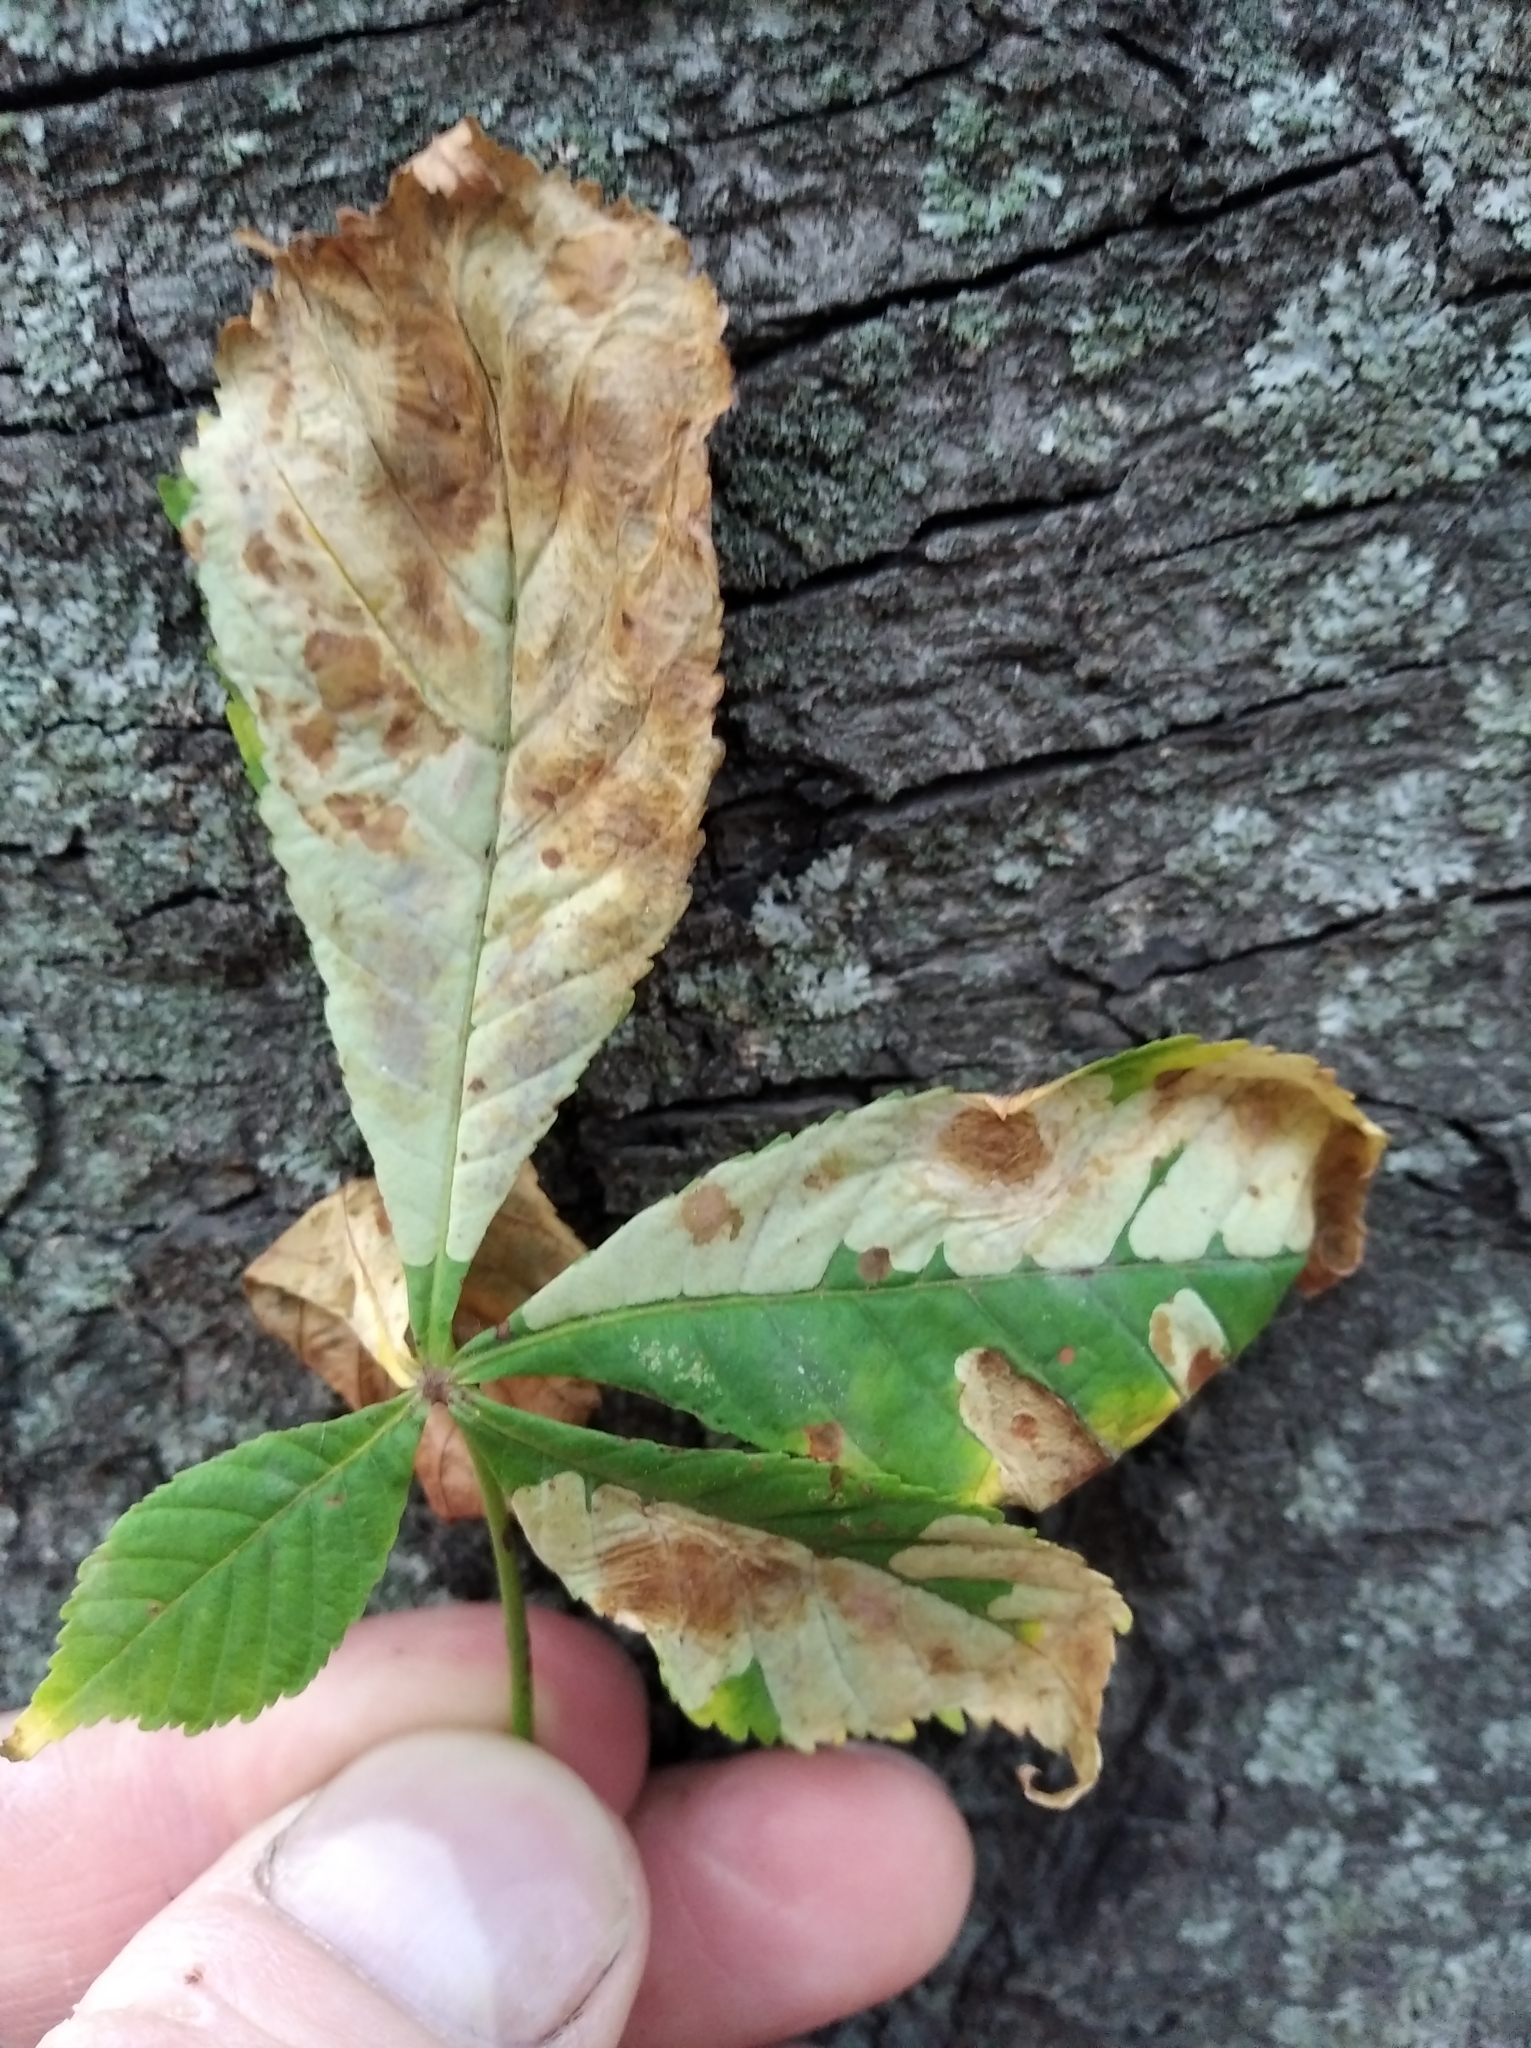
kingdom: Animalia
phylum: Arthropoda
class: Insecta
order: Lepidoptera
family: Gracillariidae
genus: Cameraria
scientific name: Cameraria ohridella
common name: Horse-chestnut leaf-miner
